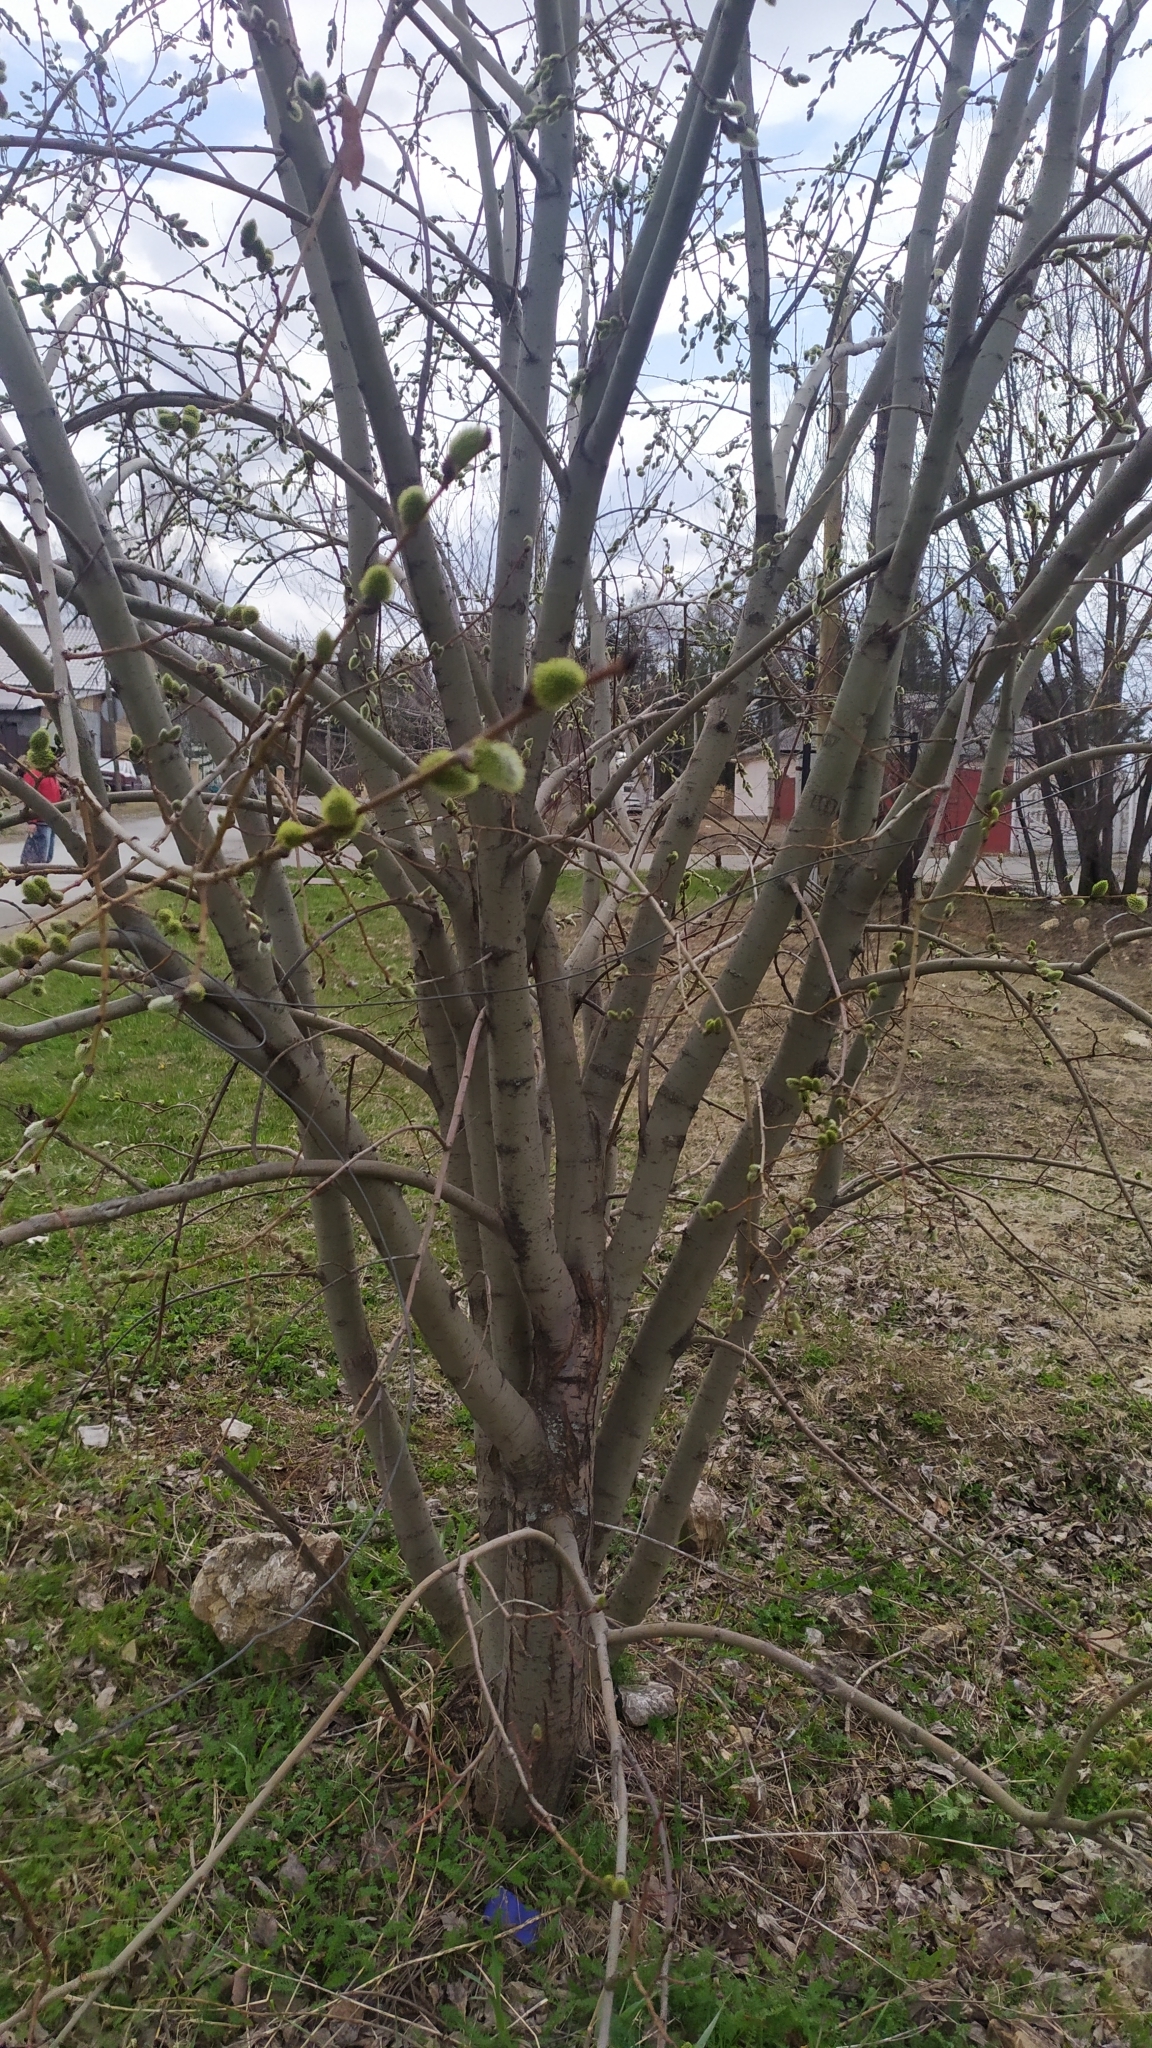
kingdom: Plantae
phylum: Tracheophyta
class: Magnoliopsida
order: Malpighiales
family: Salicaceae
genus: Salix
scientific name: Salix caprea
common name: Goat willow
